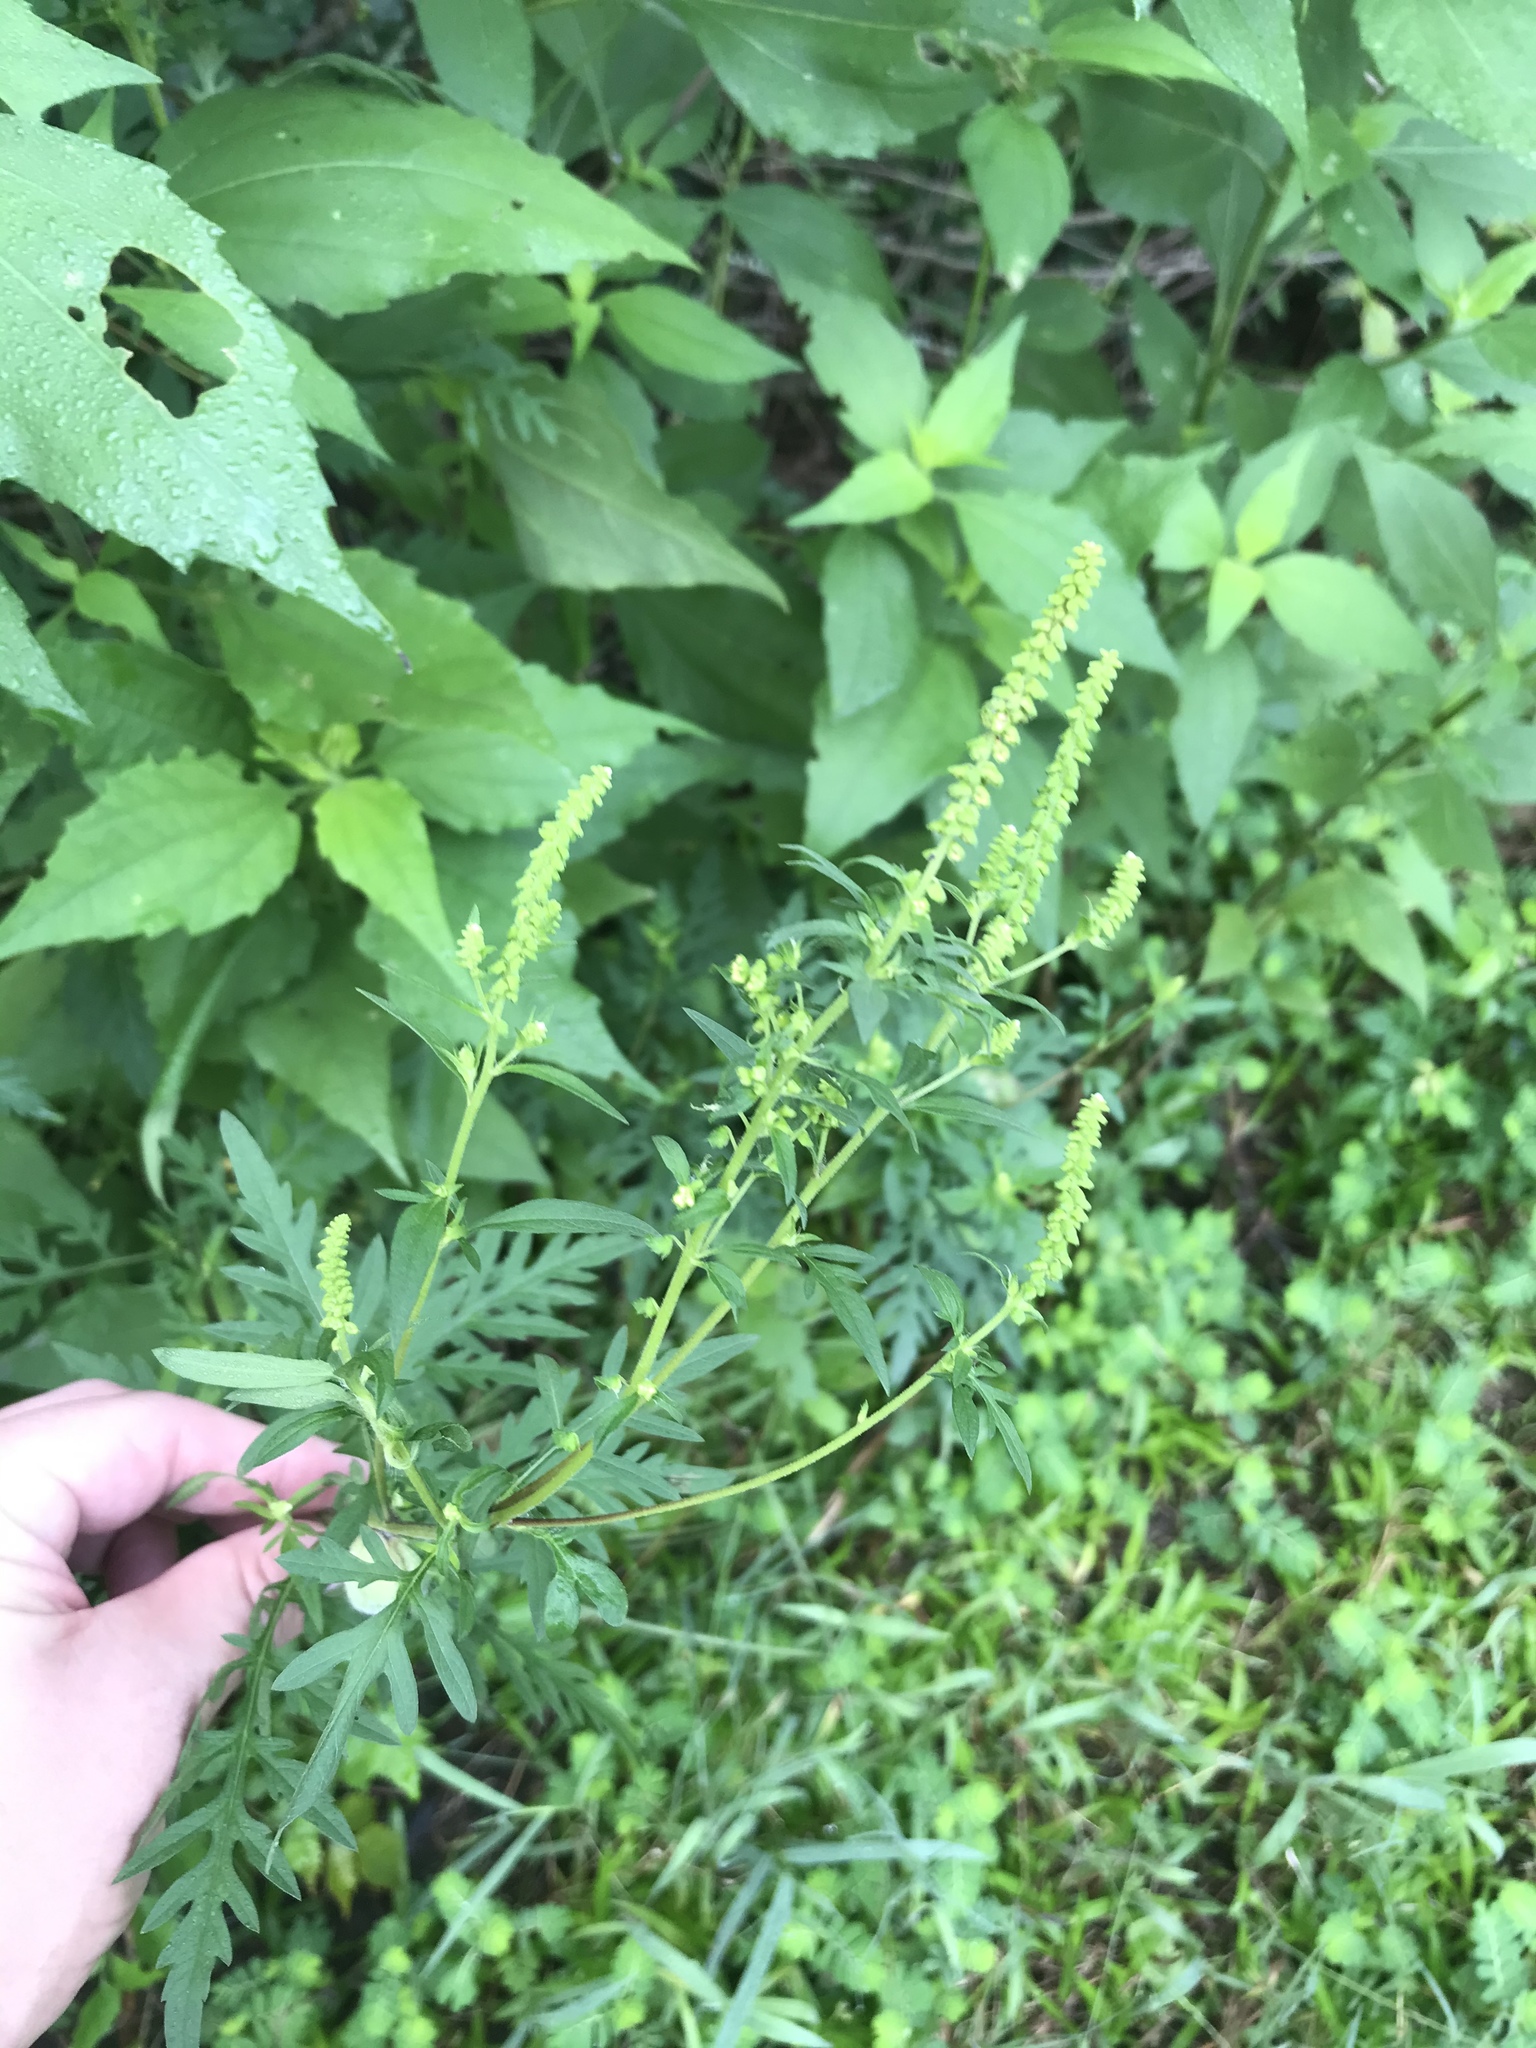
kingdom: Plantae
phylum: Tracheophyta
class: Magnoliopsida
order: Asterales
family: Asteraceae
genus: Ambrosia
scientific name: Ambrosia artemisiifolia
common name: Annual ragweed
